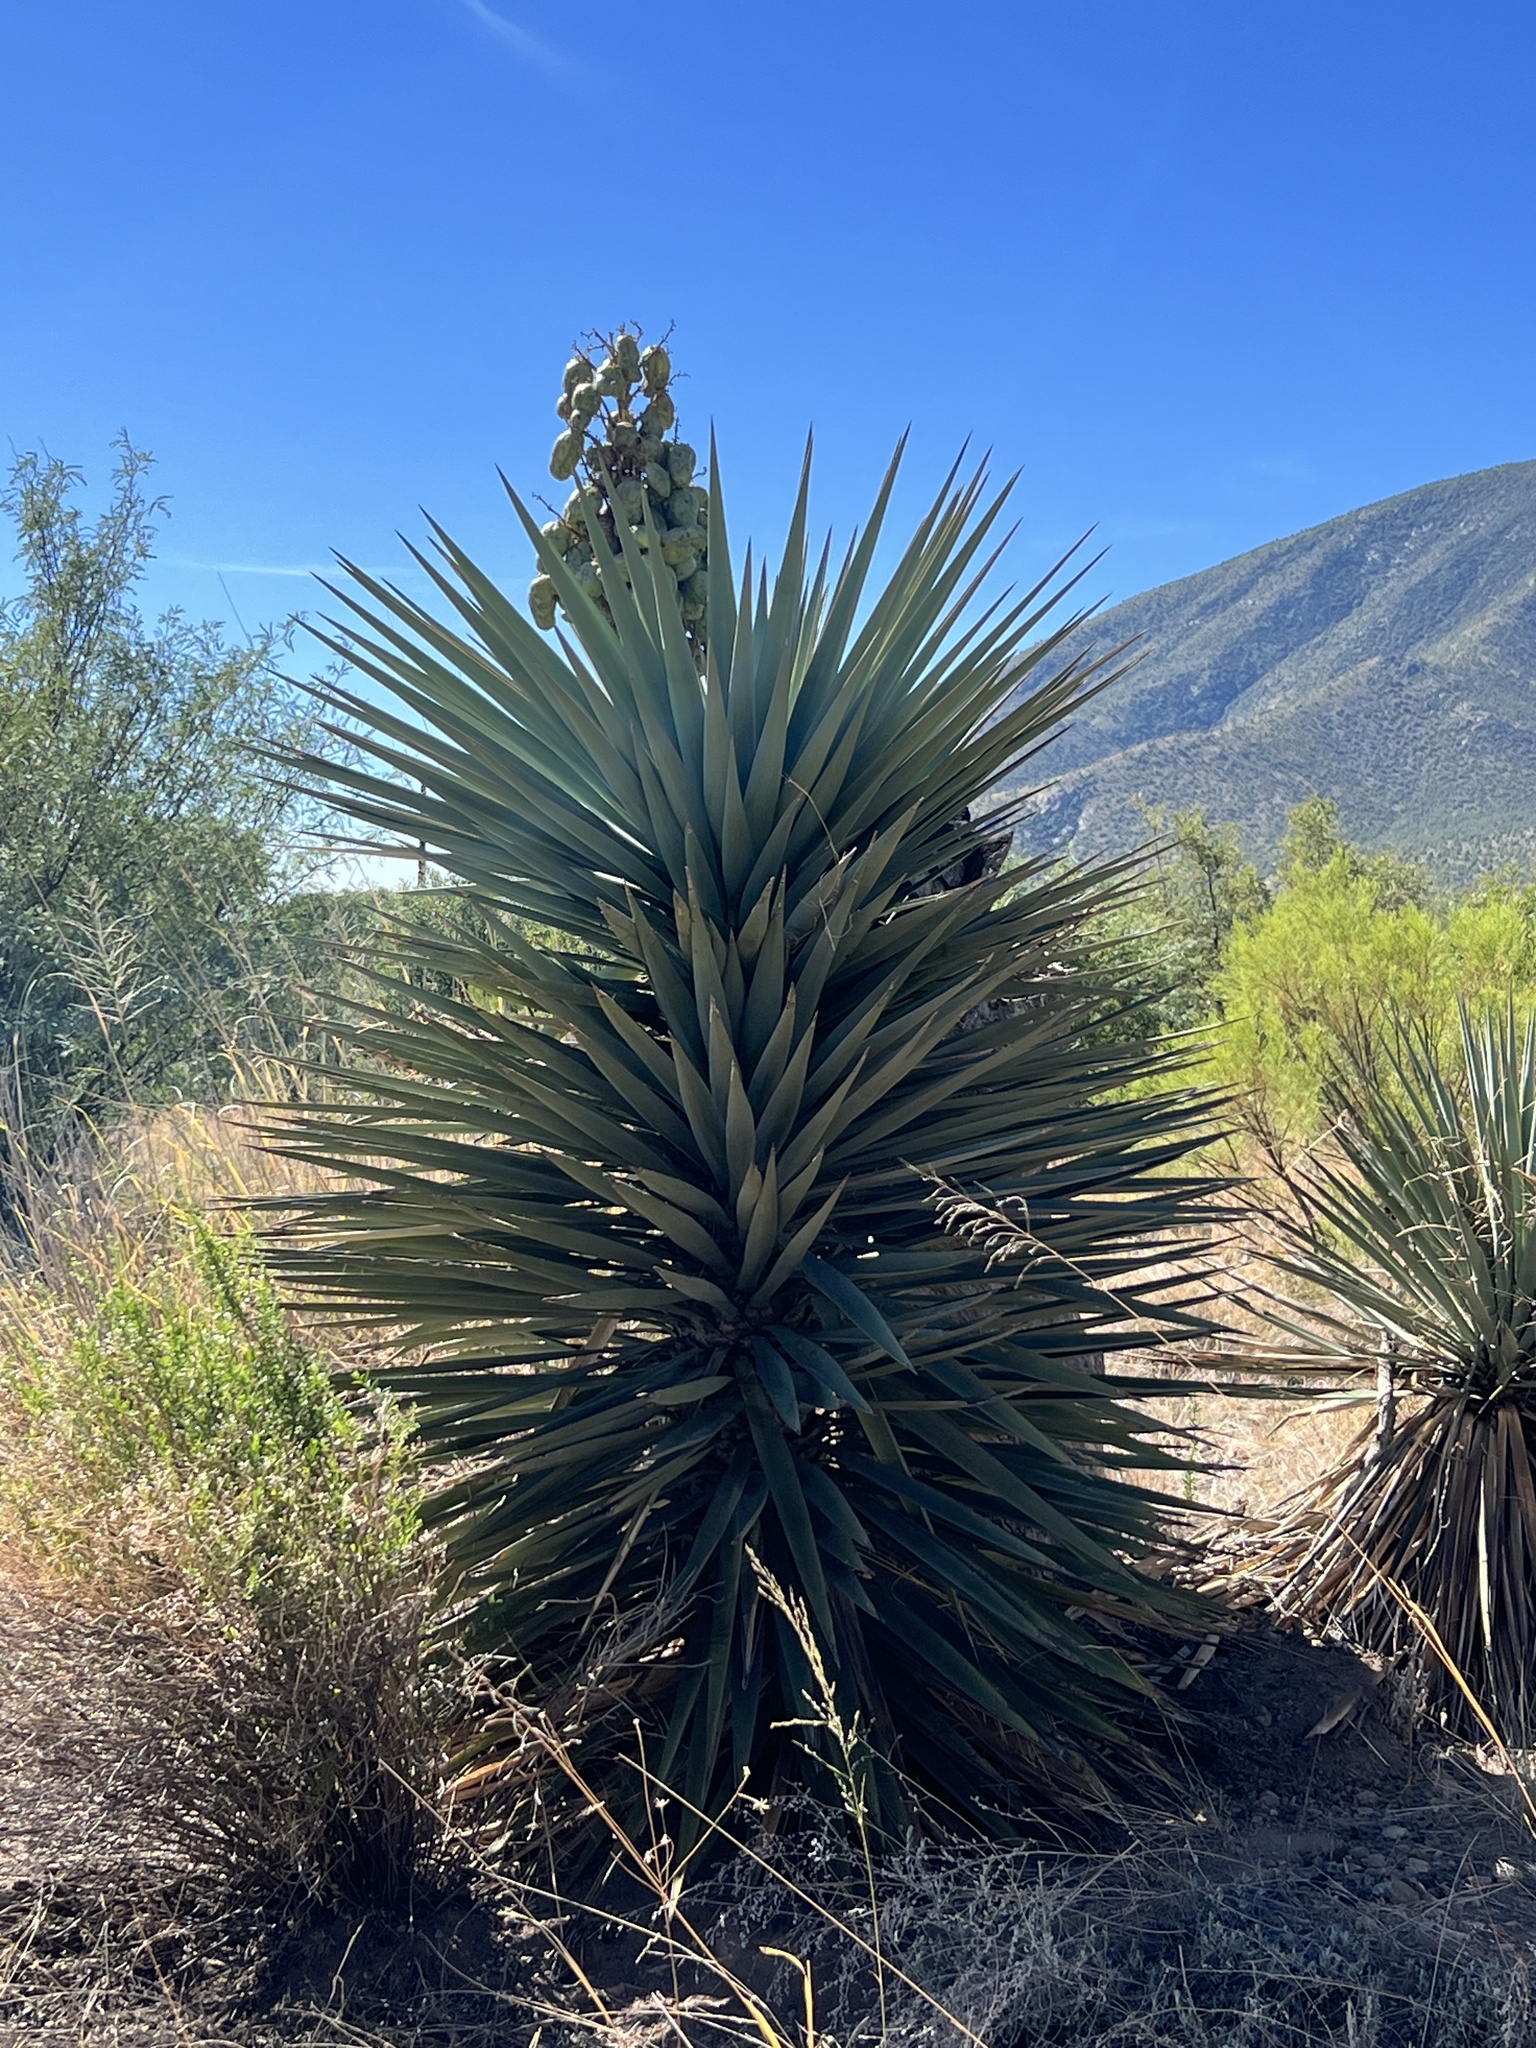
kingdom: Plantae
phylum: Tracheophyta
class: Liliopsida
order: Asparagales
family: Asparagaceae
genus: Yucca
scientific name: Yucca schottii
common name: Hoary yucca
